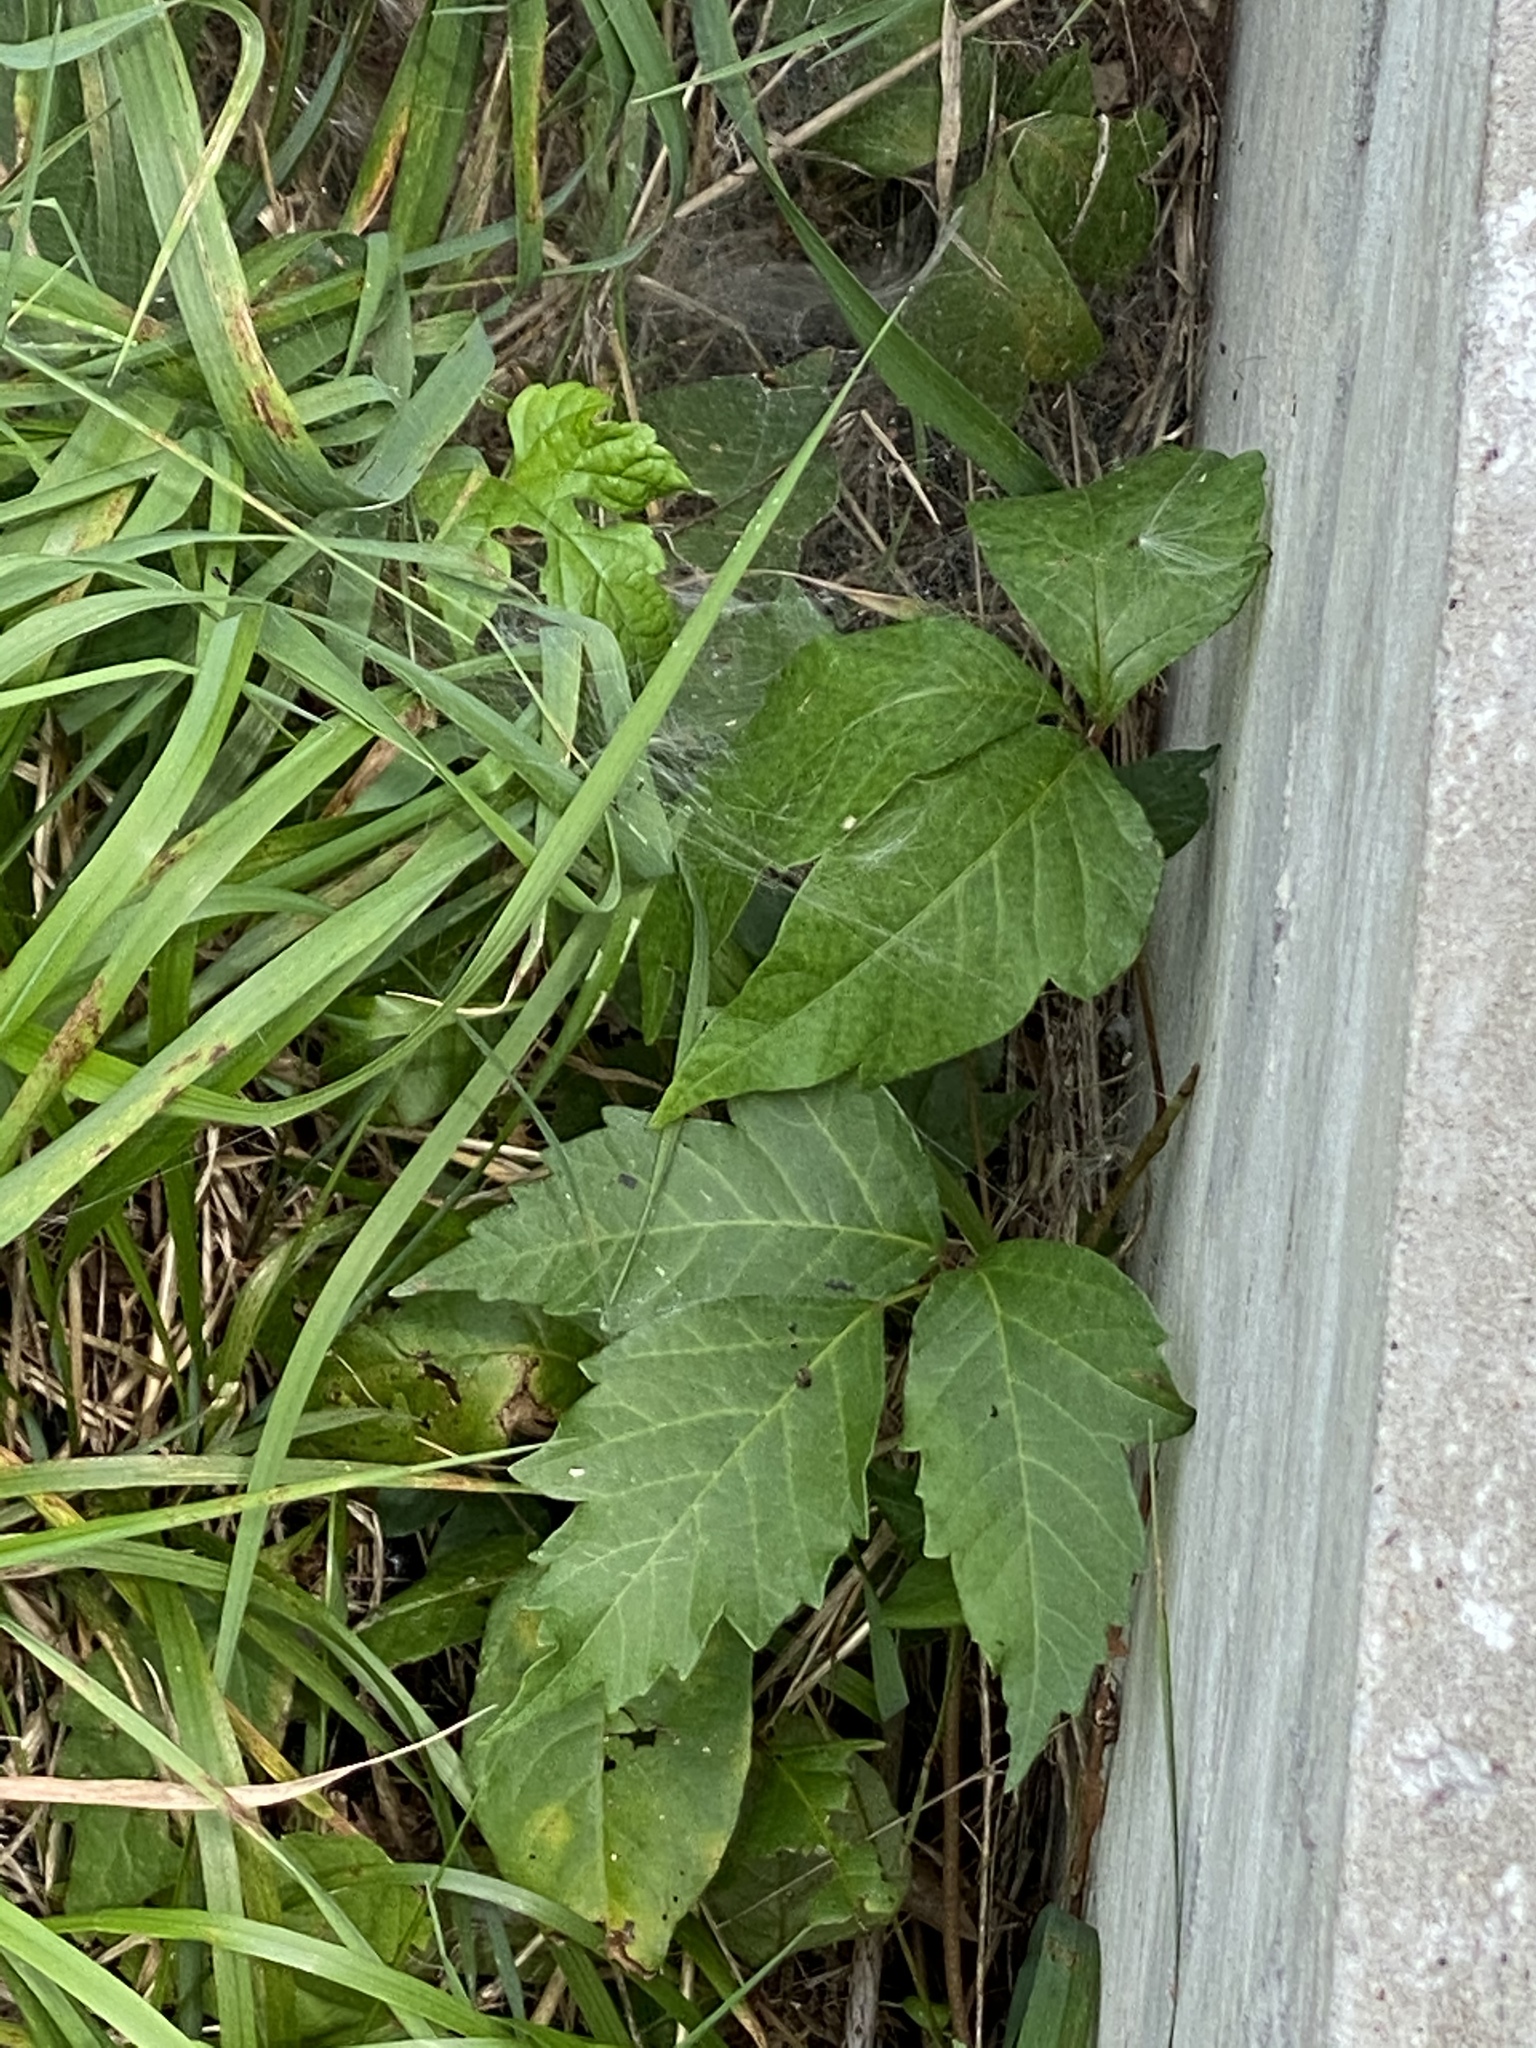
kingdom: Plantae
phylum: Tracheophyta
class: Magnoliopsida
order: Sapindales
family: Anacardiaceae
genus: Toxicodendron
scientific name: Toxicodendron radicans
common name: Poison ivy
